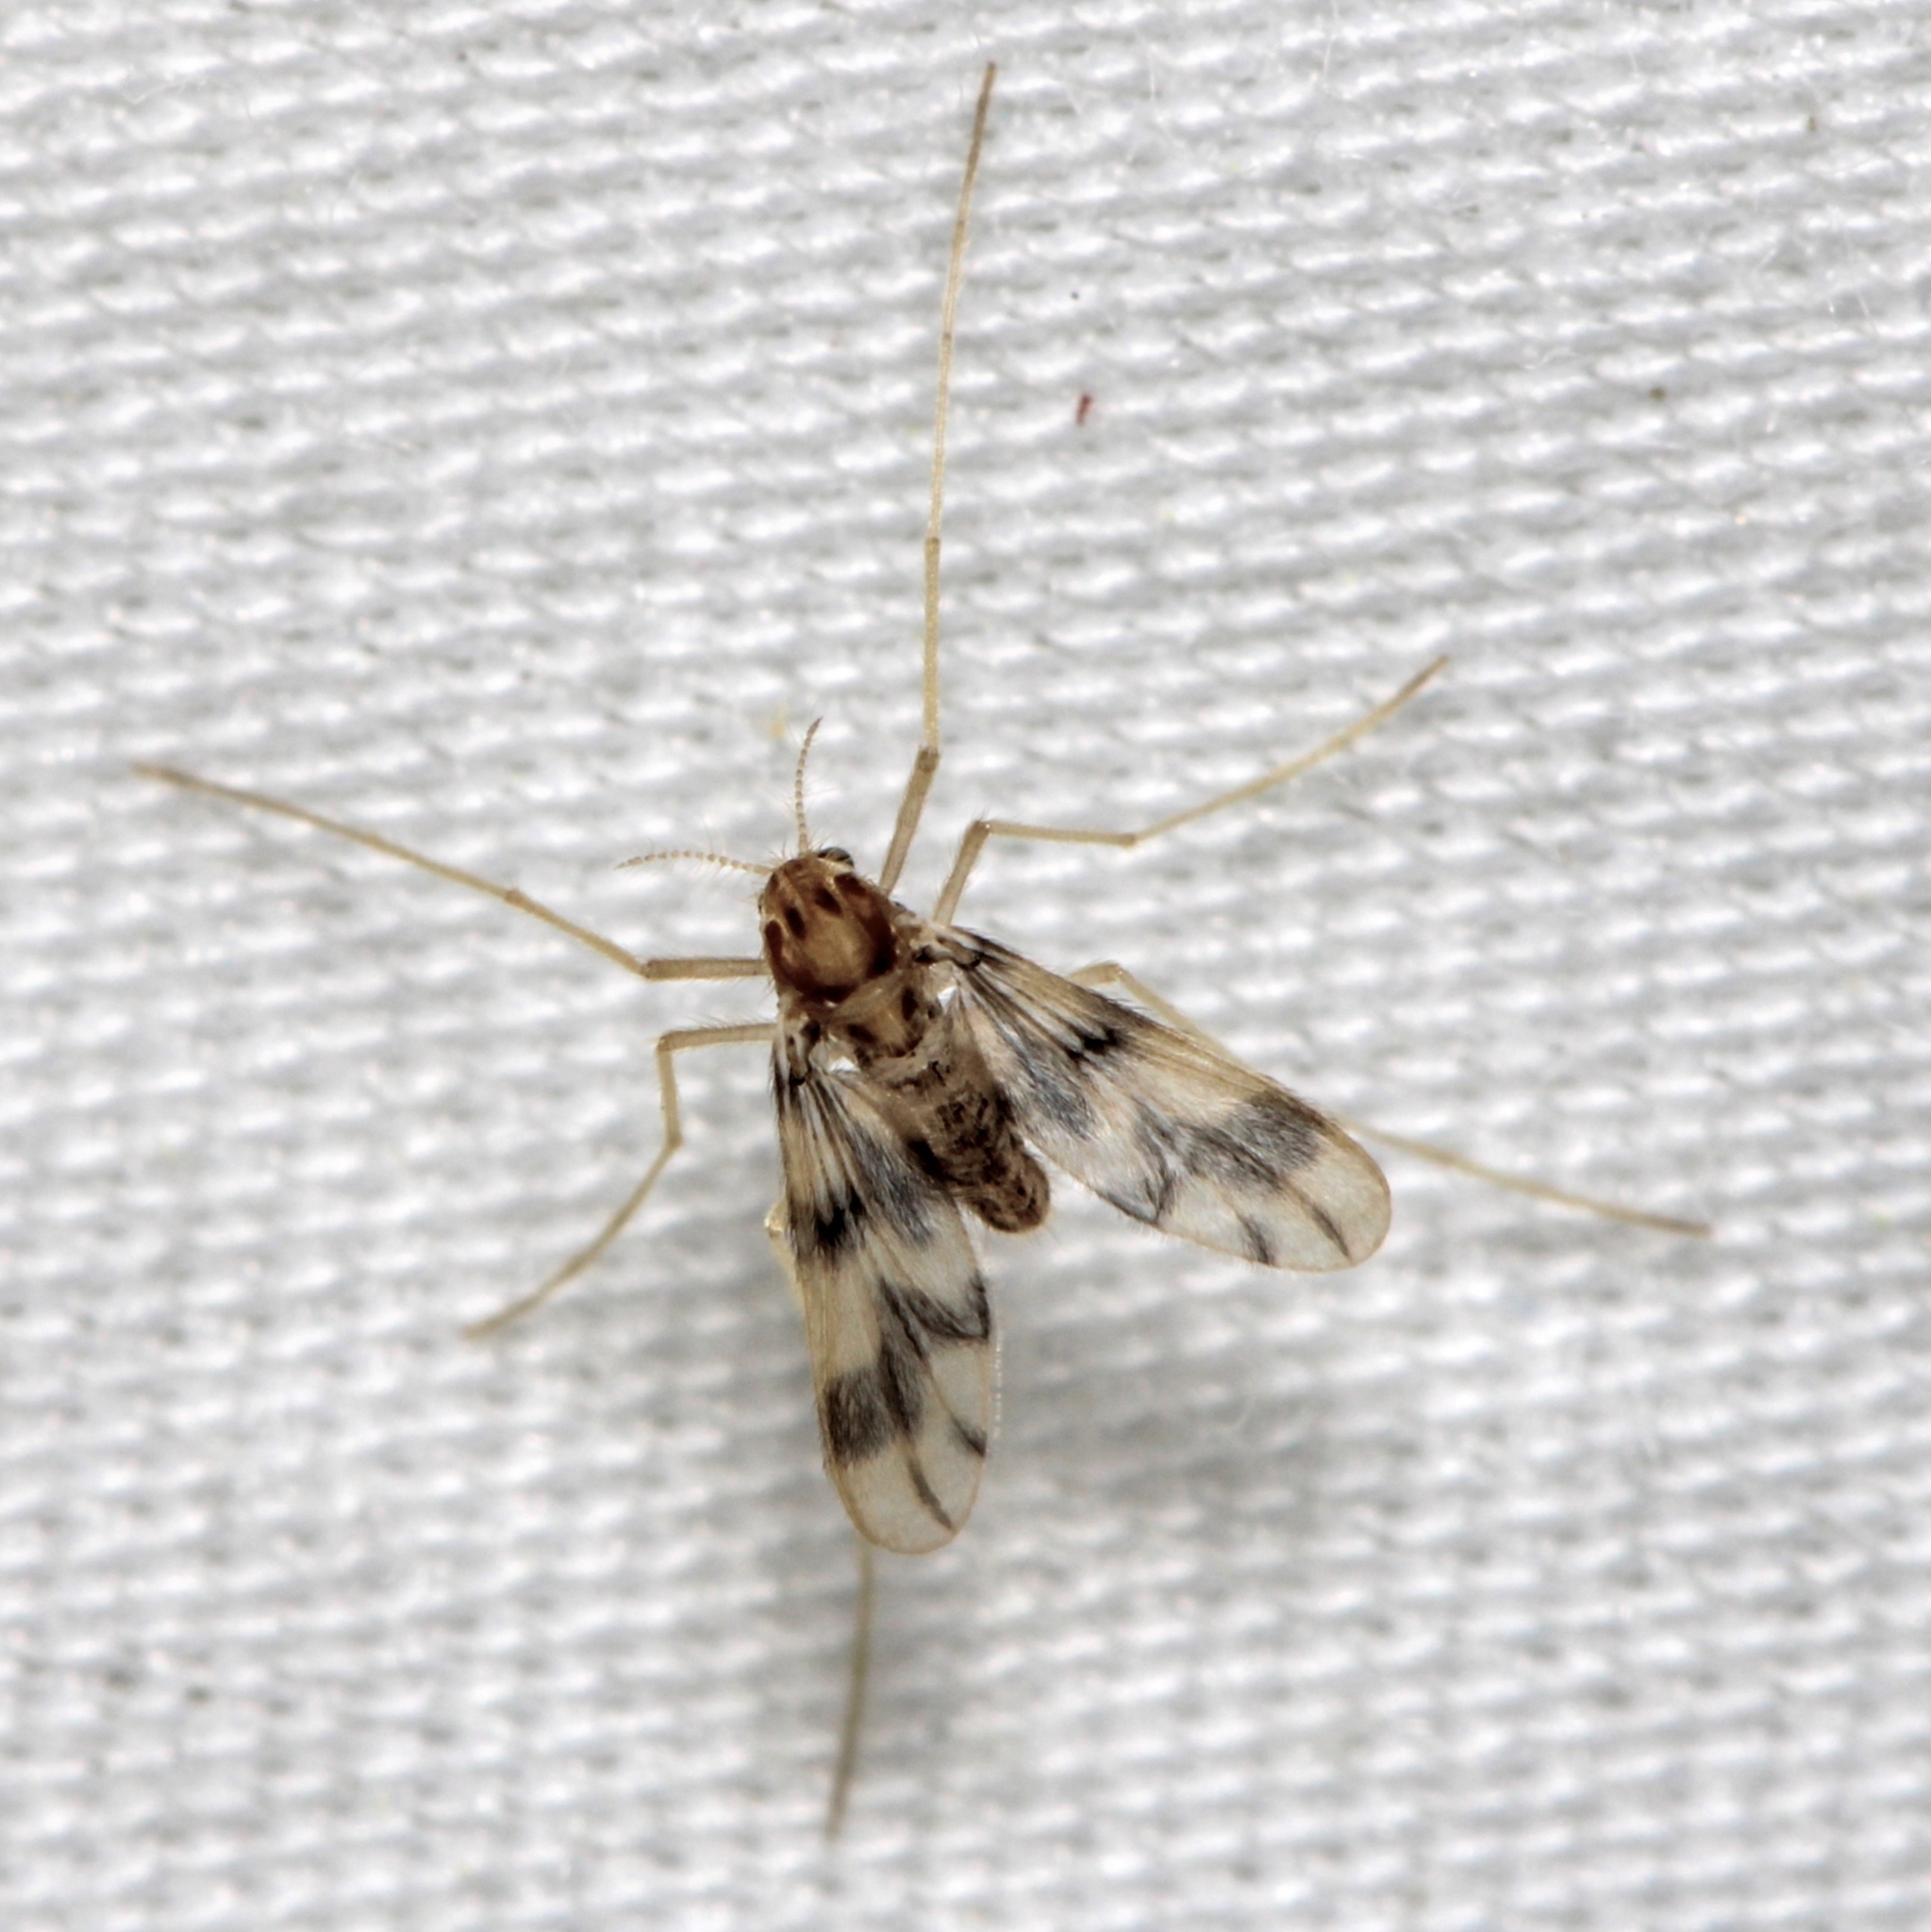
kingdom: Animalia
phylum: Arthropoda
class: Insecta
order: Diptera
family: Chironomidae
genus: Zavrelimyia
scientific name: Zavrelimyia sinuosa
